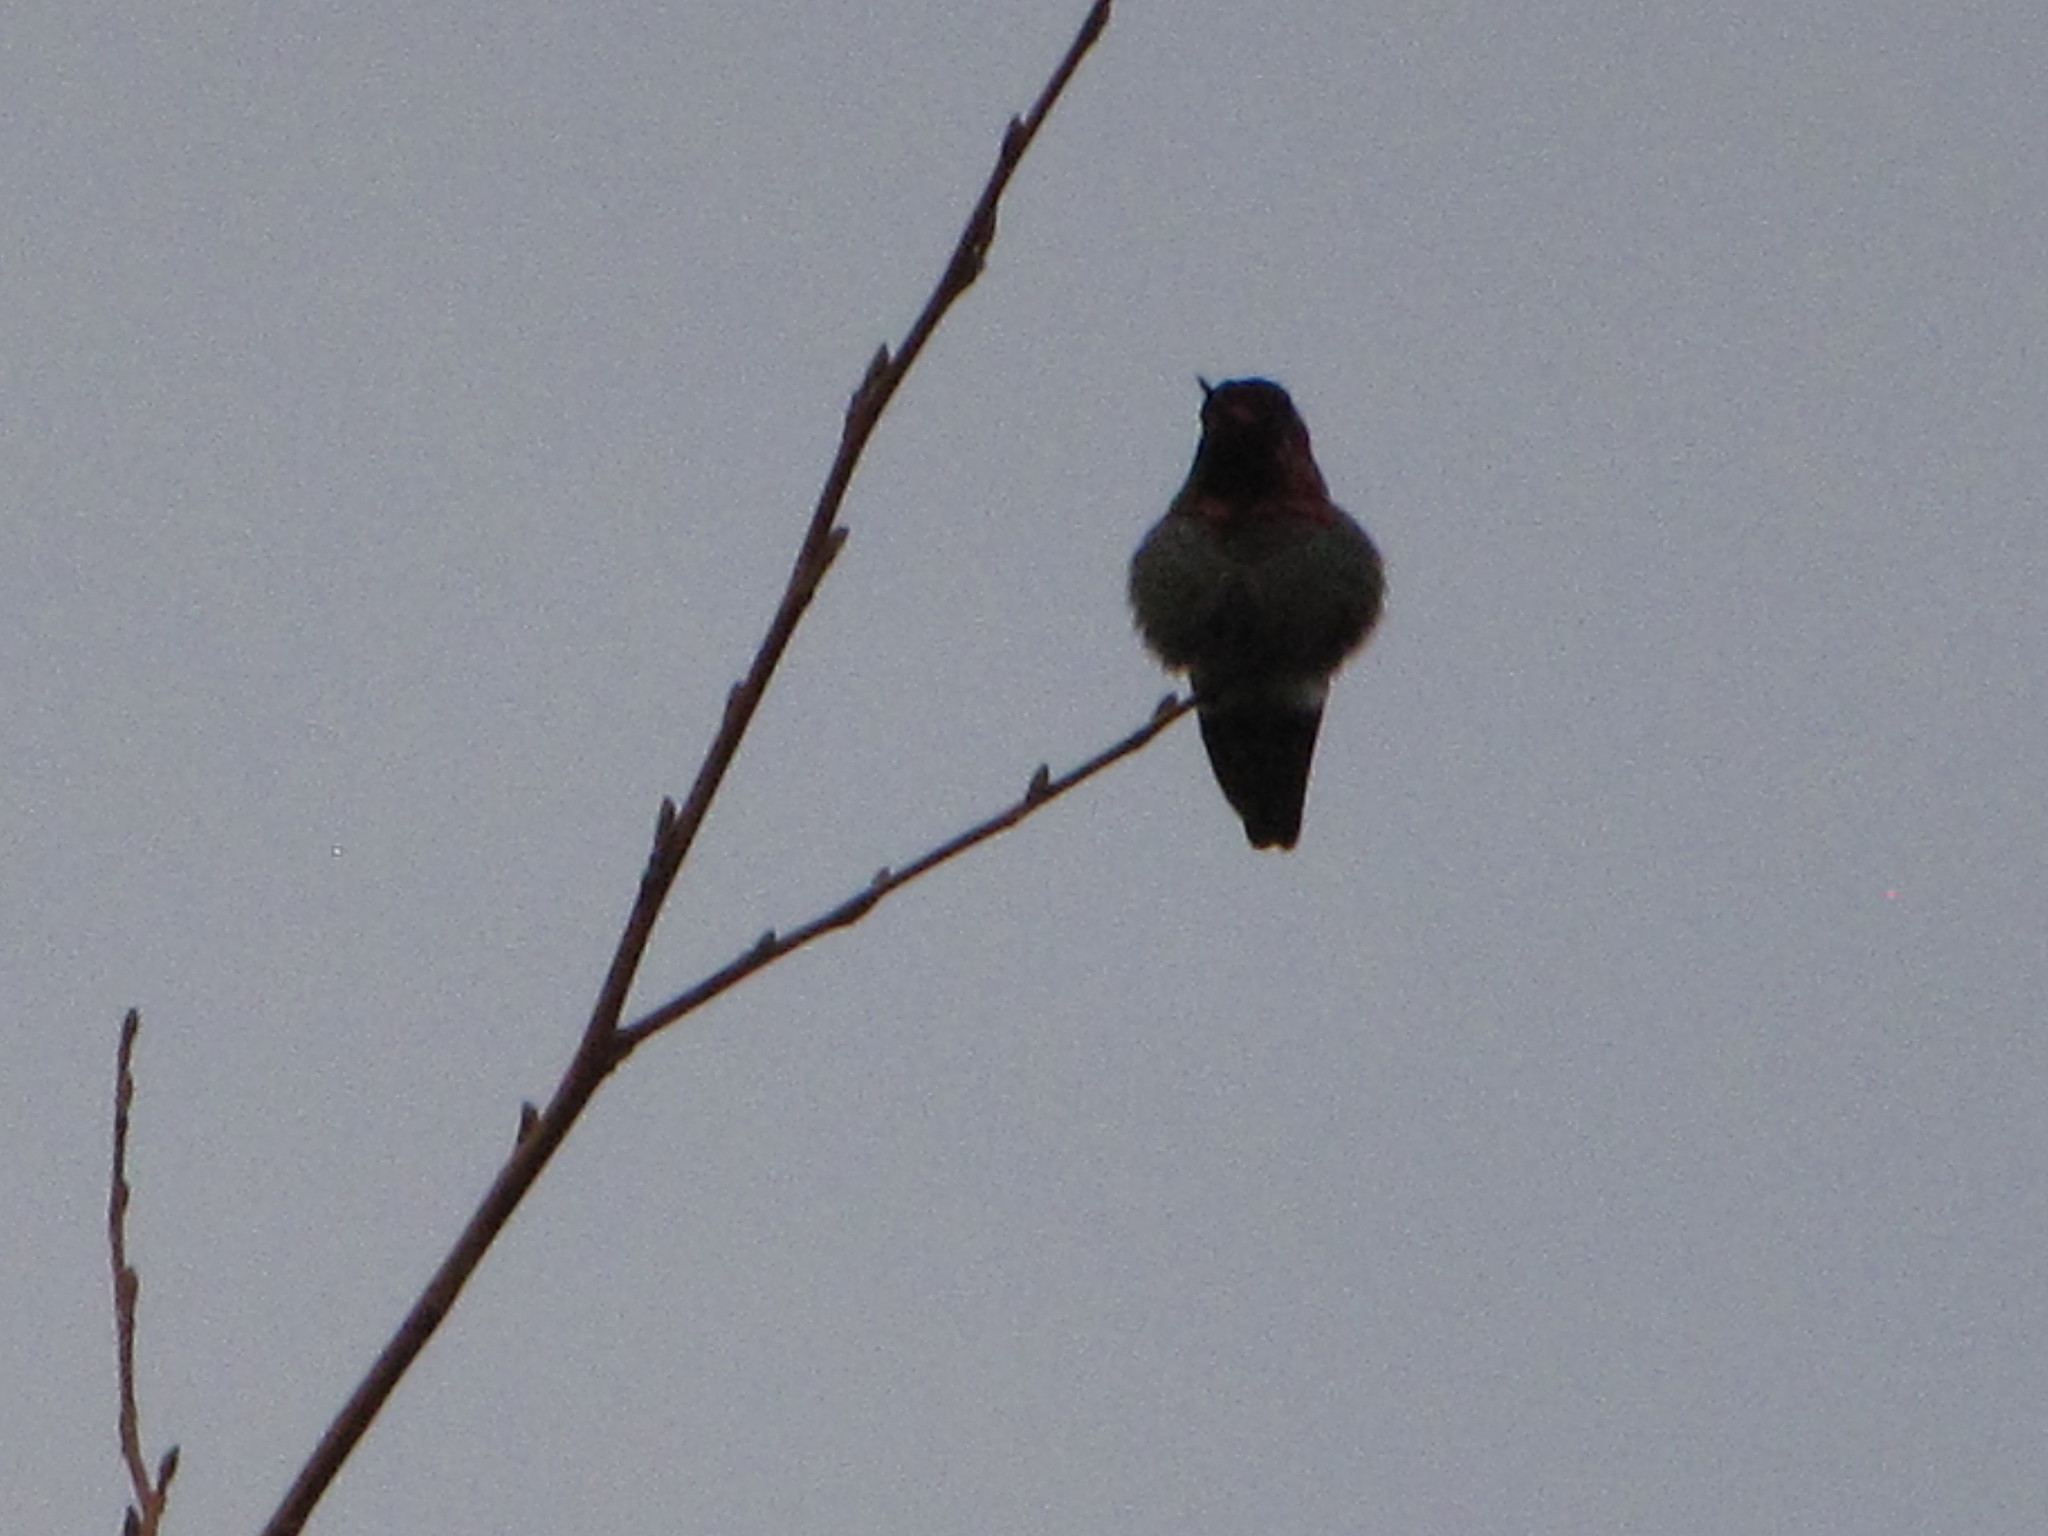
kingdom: Animalia
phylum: Chordata
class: Aves
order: Apodiformes
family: Trochilidae
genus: Calypte
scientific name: Calypte anna
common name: Anna's hummingbird
